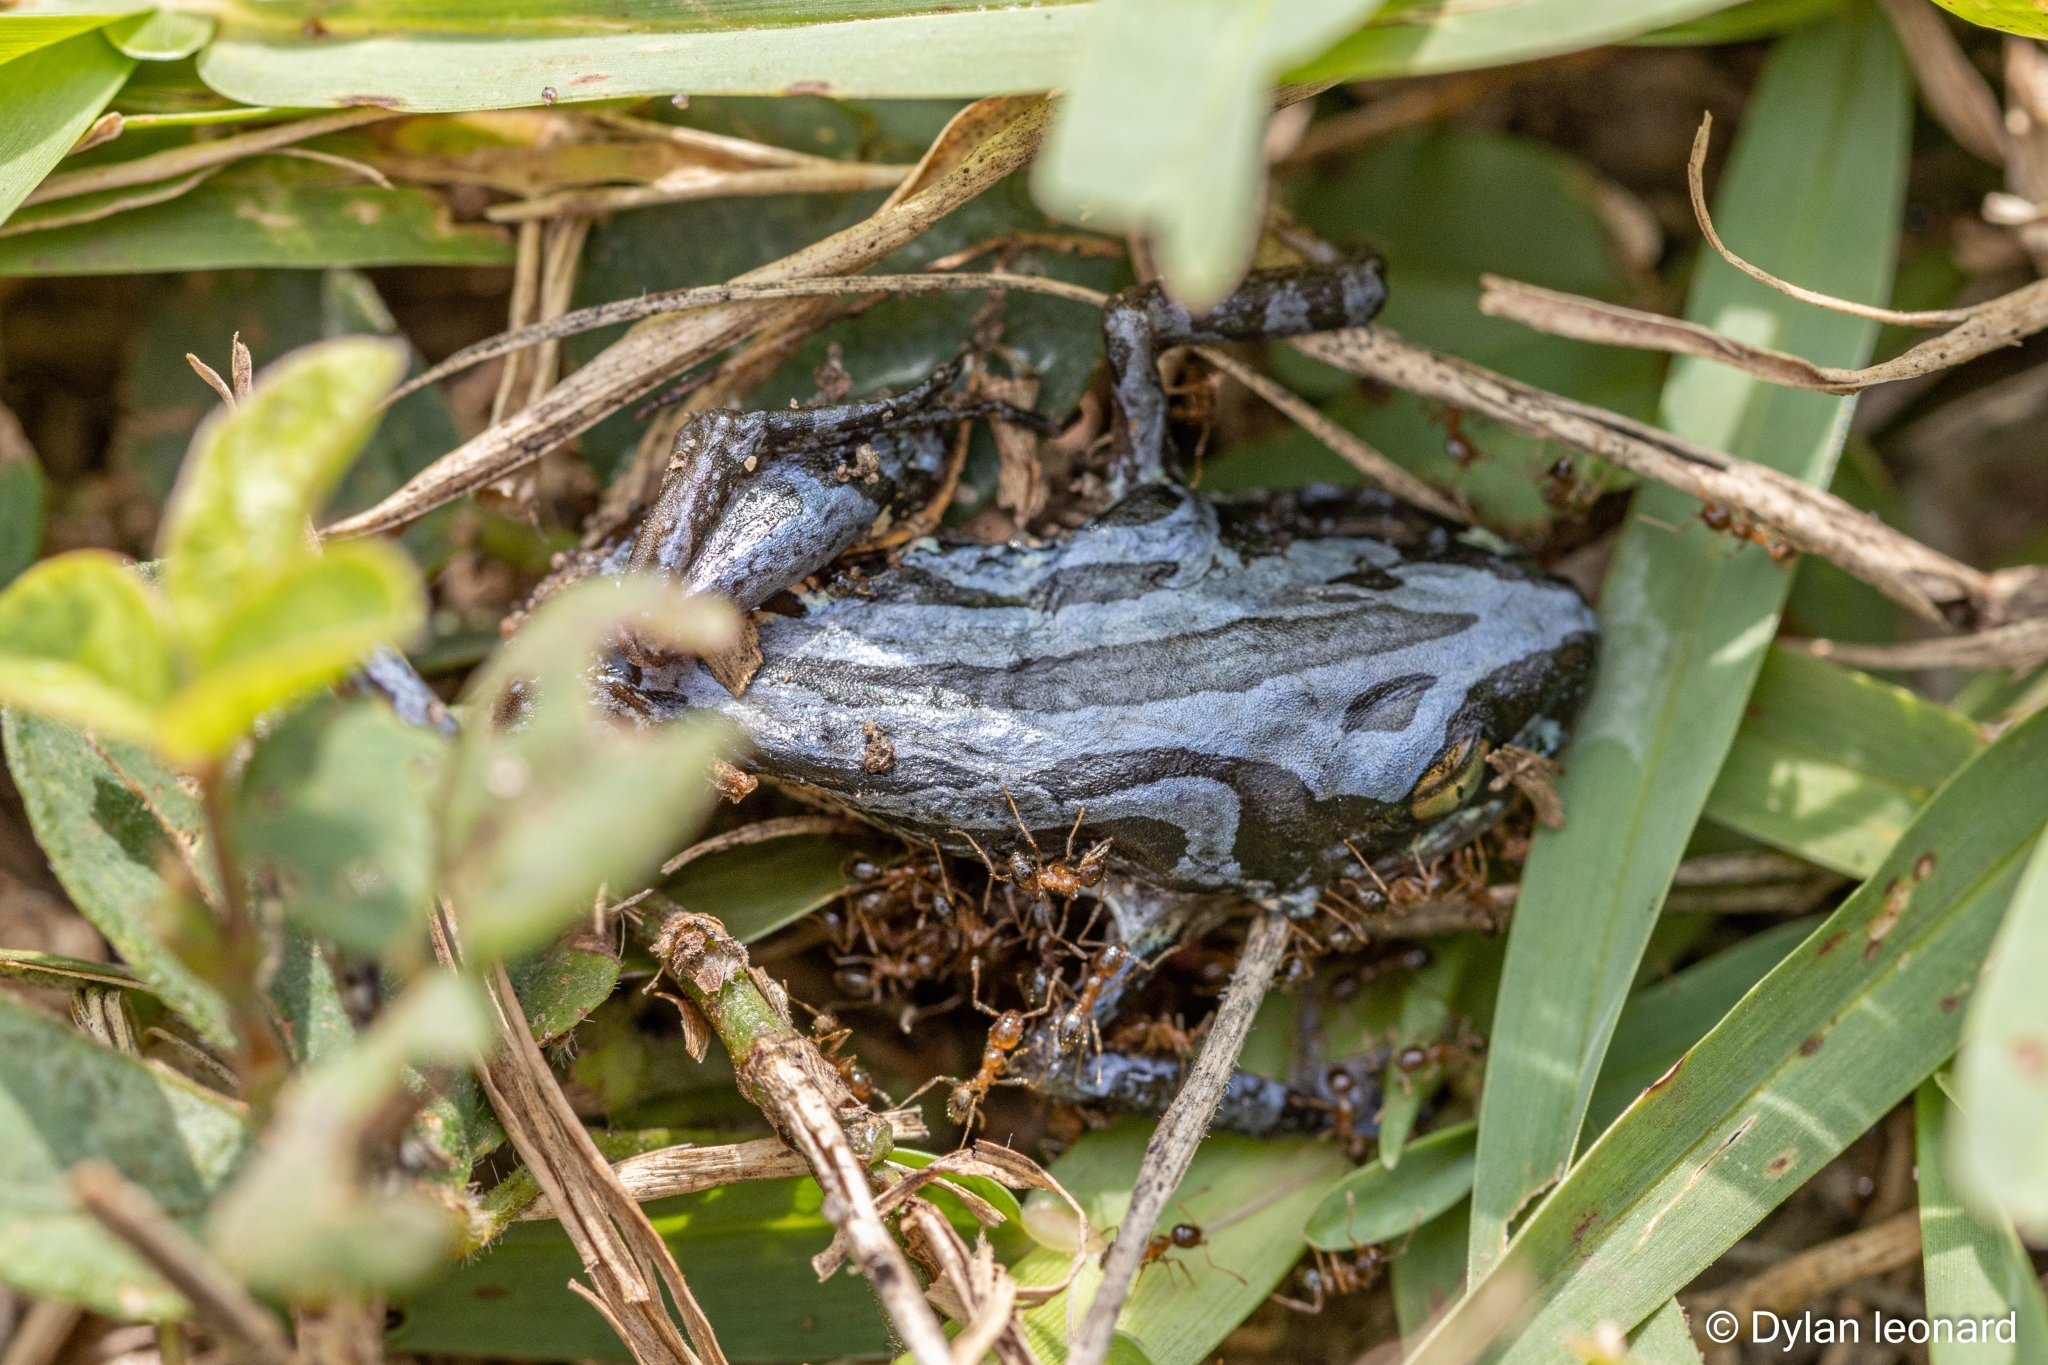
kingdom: Animalia
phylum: Chordata
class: Amphibia
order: Anura
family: Hyperoliidae
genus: Kassina
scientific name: Kassina senegalensis
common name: Senegal land frog
